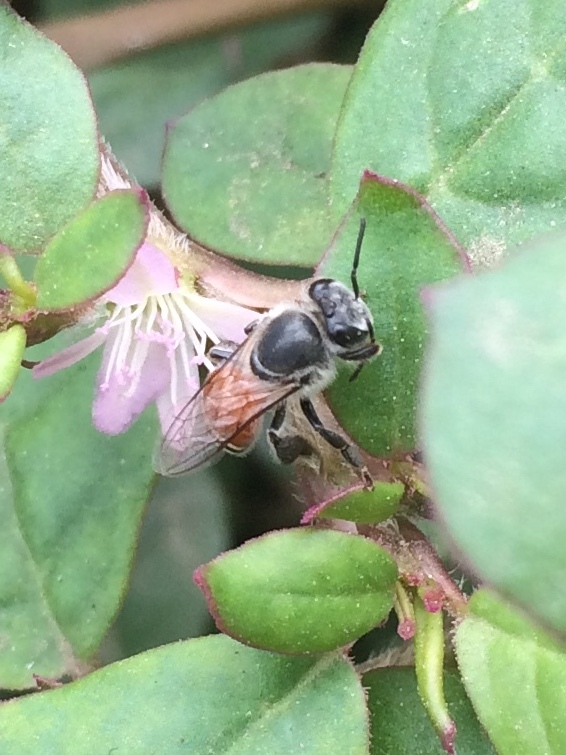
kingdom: Animalia
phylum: Arthropoda
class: Insecta
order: Hymenoptera
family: Apidae
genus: Apis
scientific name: Apis florea
